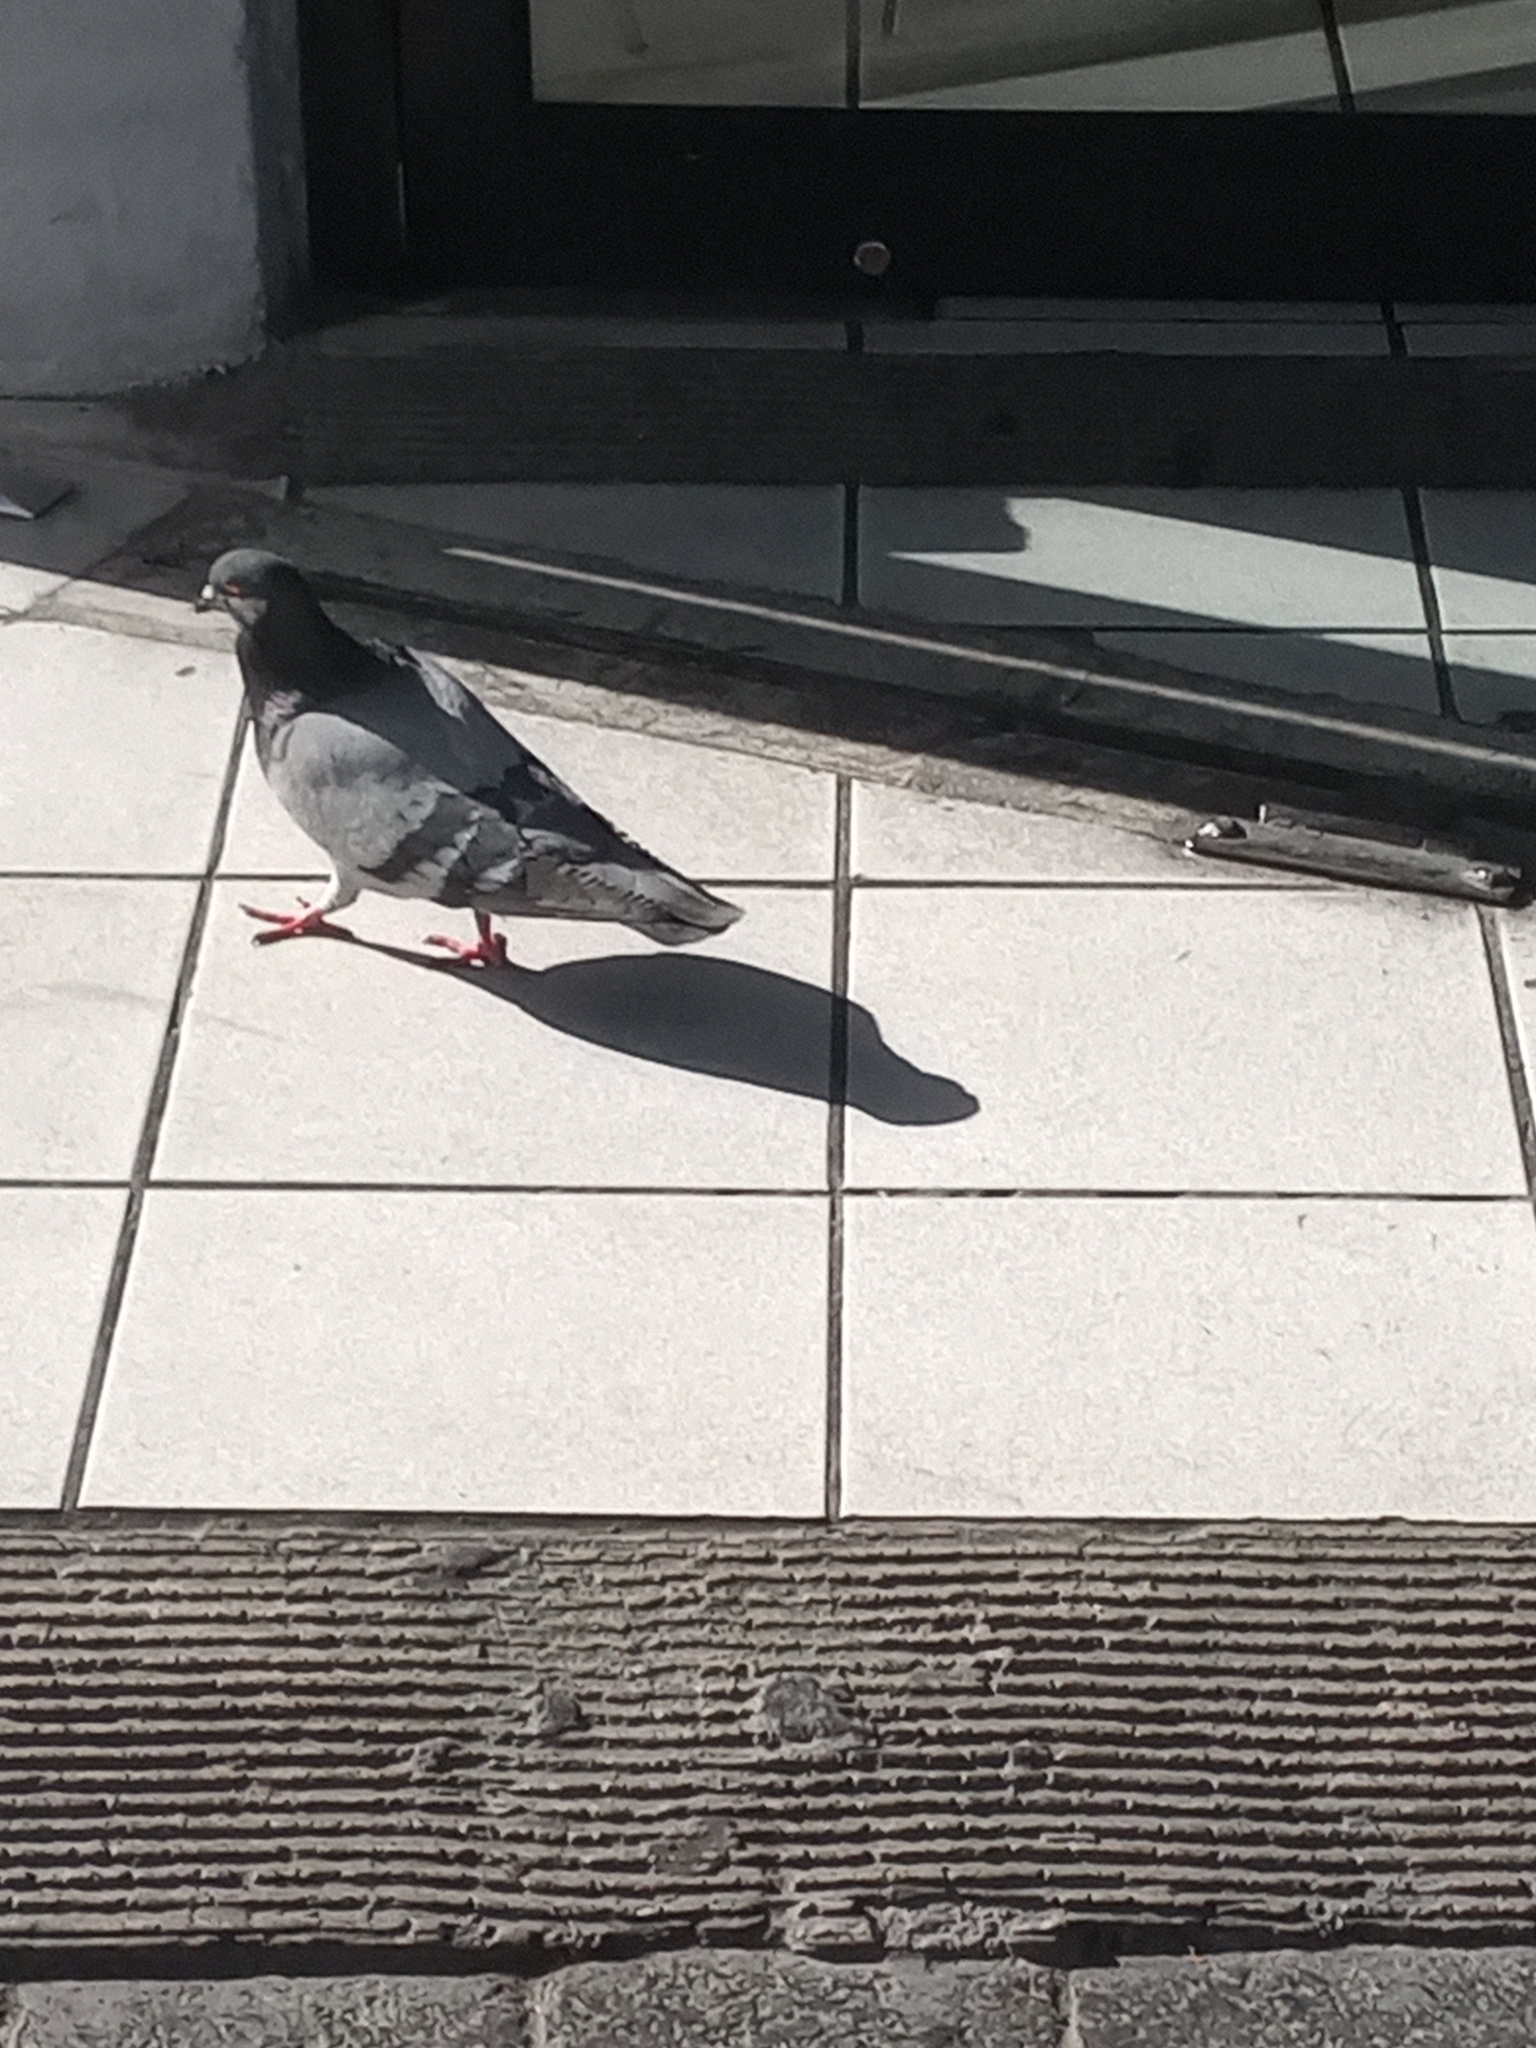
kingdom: Animalia
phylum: Chordata
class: Aves
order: Columbiformes
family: Columbidae
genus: Columba
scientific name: Columba livia
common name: Rock pigeon
